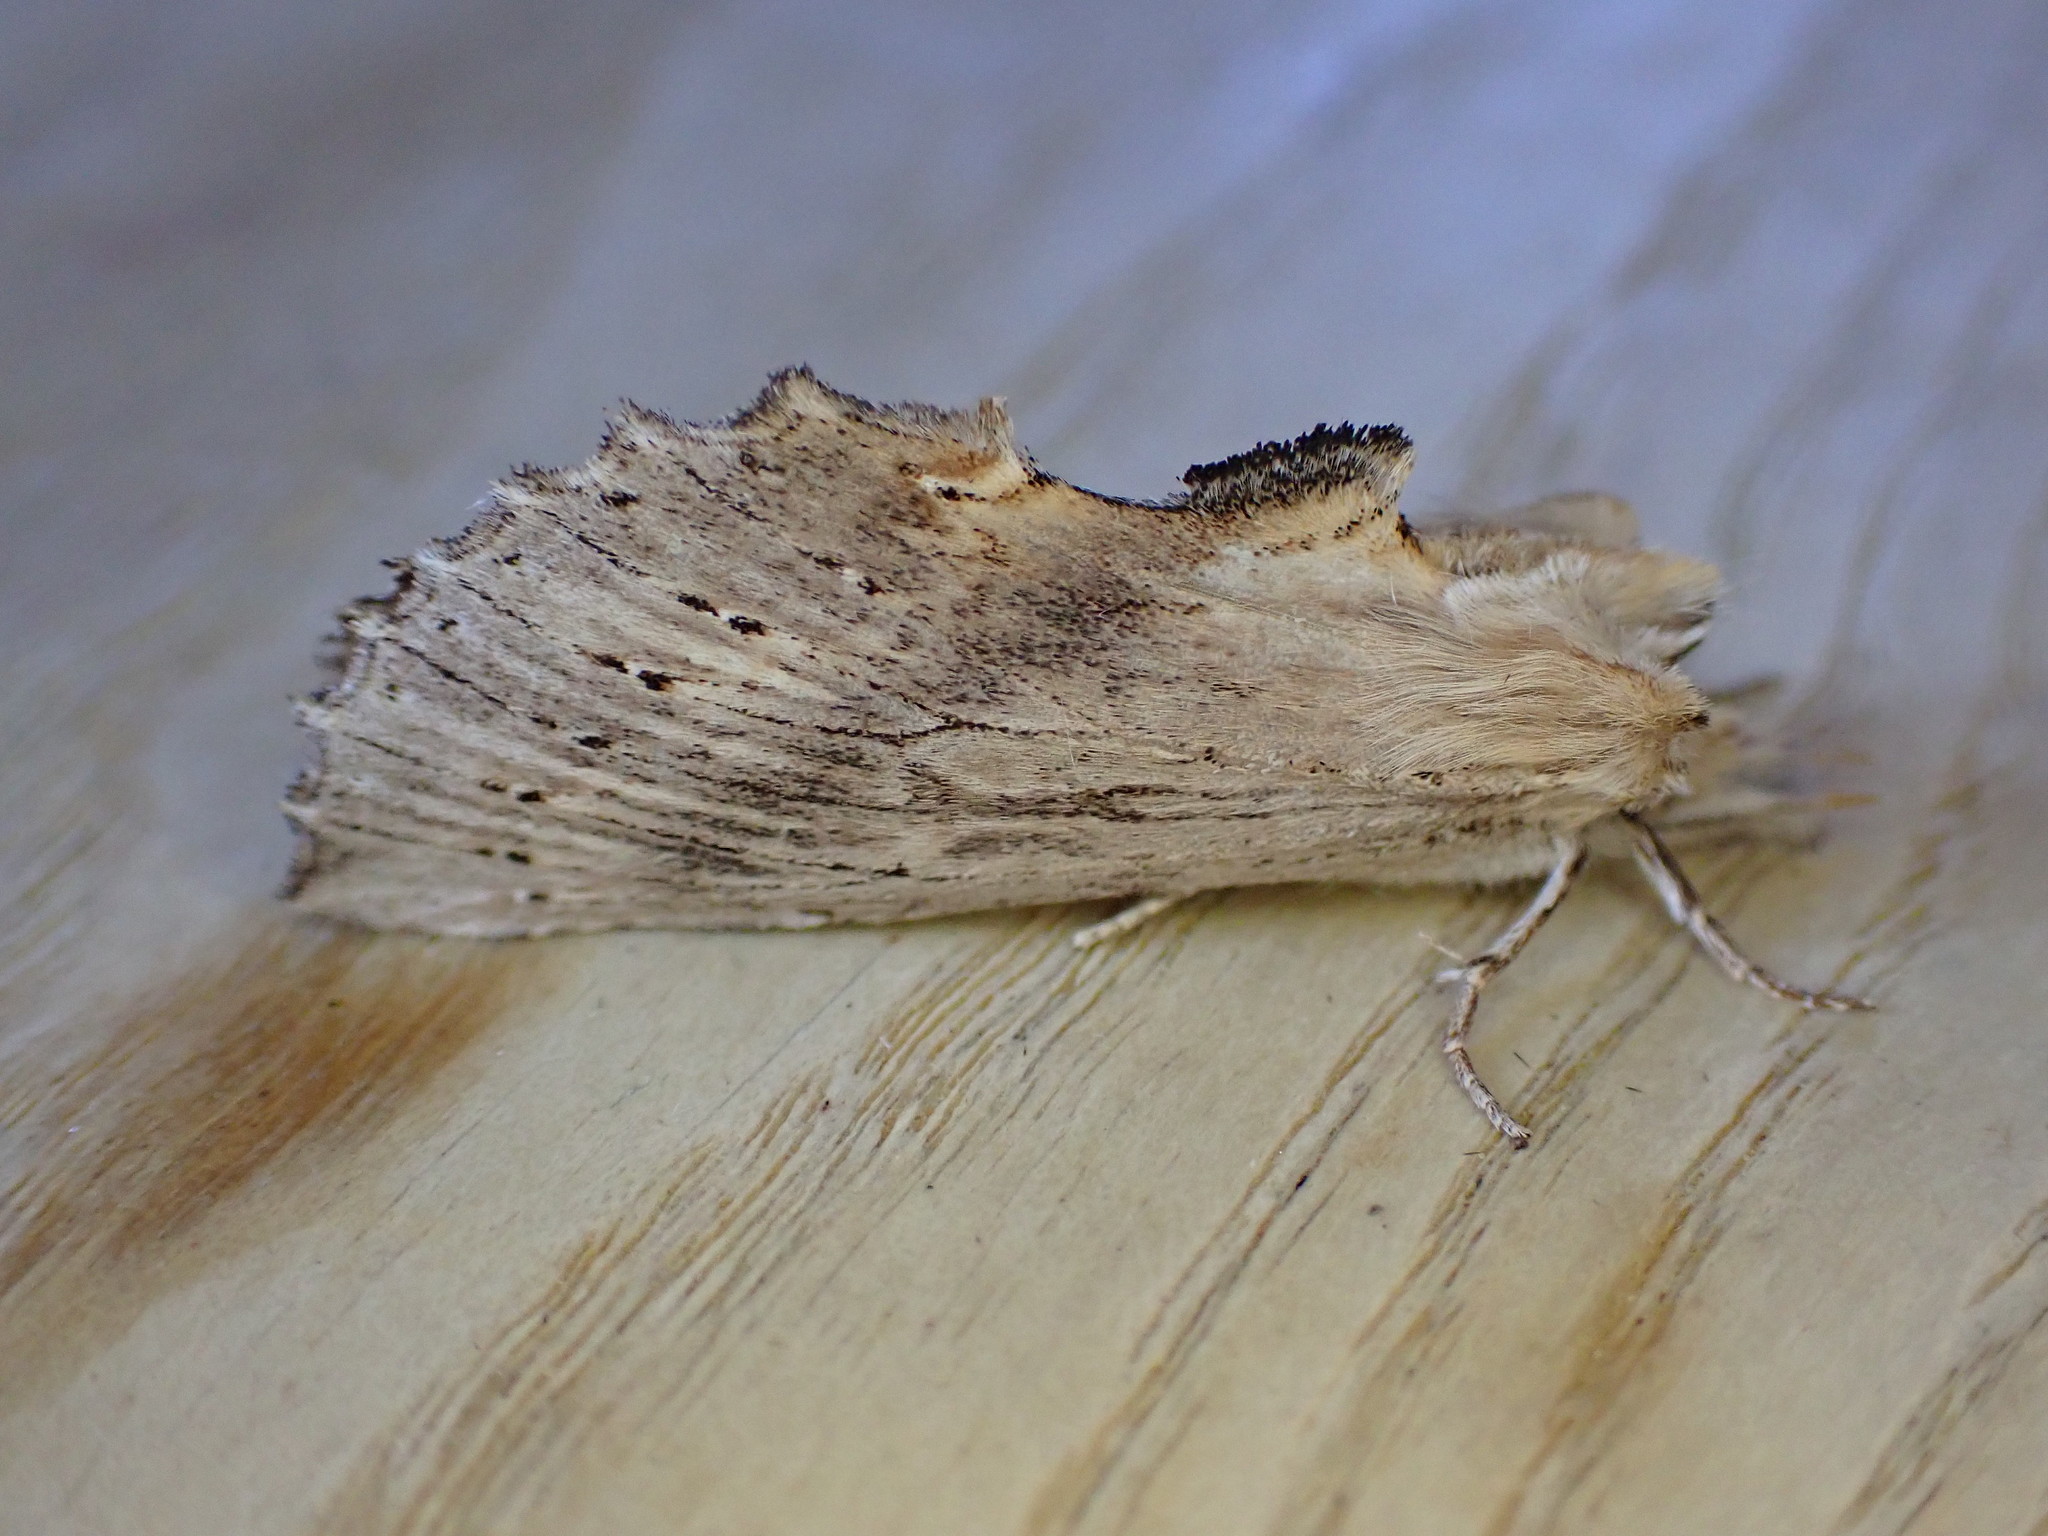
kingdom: Animalia
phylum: Arthropoda
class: Insecta
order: Lepidoptera
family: Notodontidae
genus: Pterostoma
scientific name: Pterostoma palpina
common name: Pale prominent
